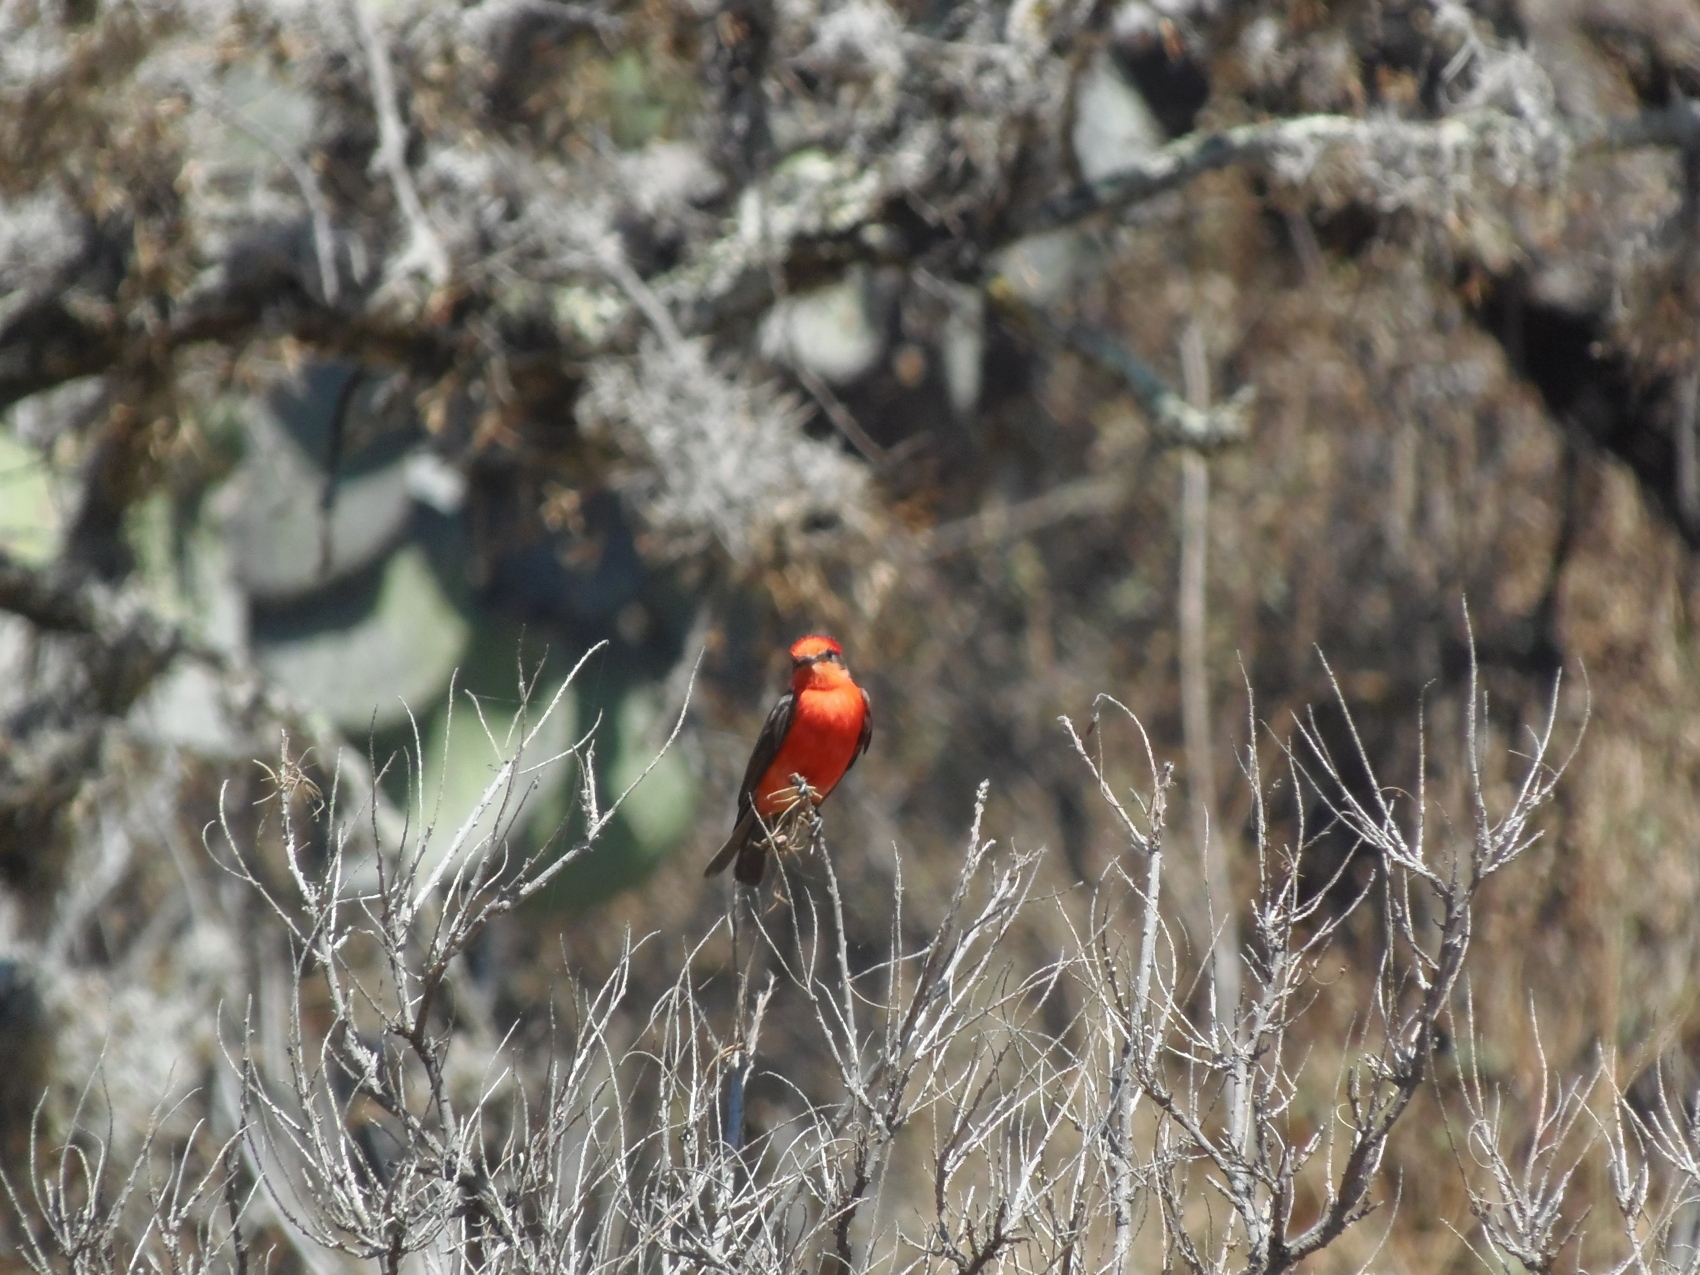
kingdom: Animalia
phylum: Chordata
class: Aves
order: Passeriformes
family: Tyrannidae
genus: Pyrocephalus
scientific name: Pyrocephalus rubinus
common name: Vermilion flycatcher
